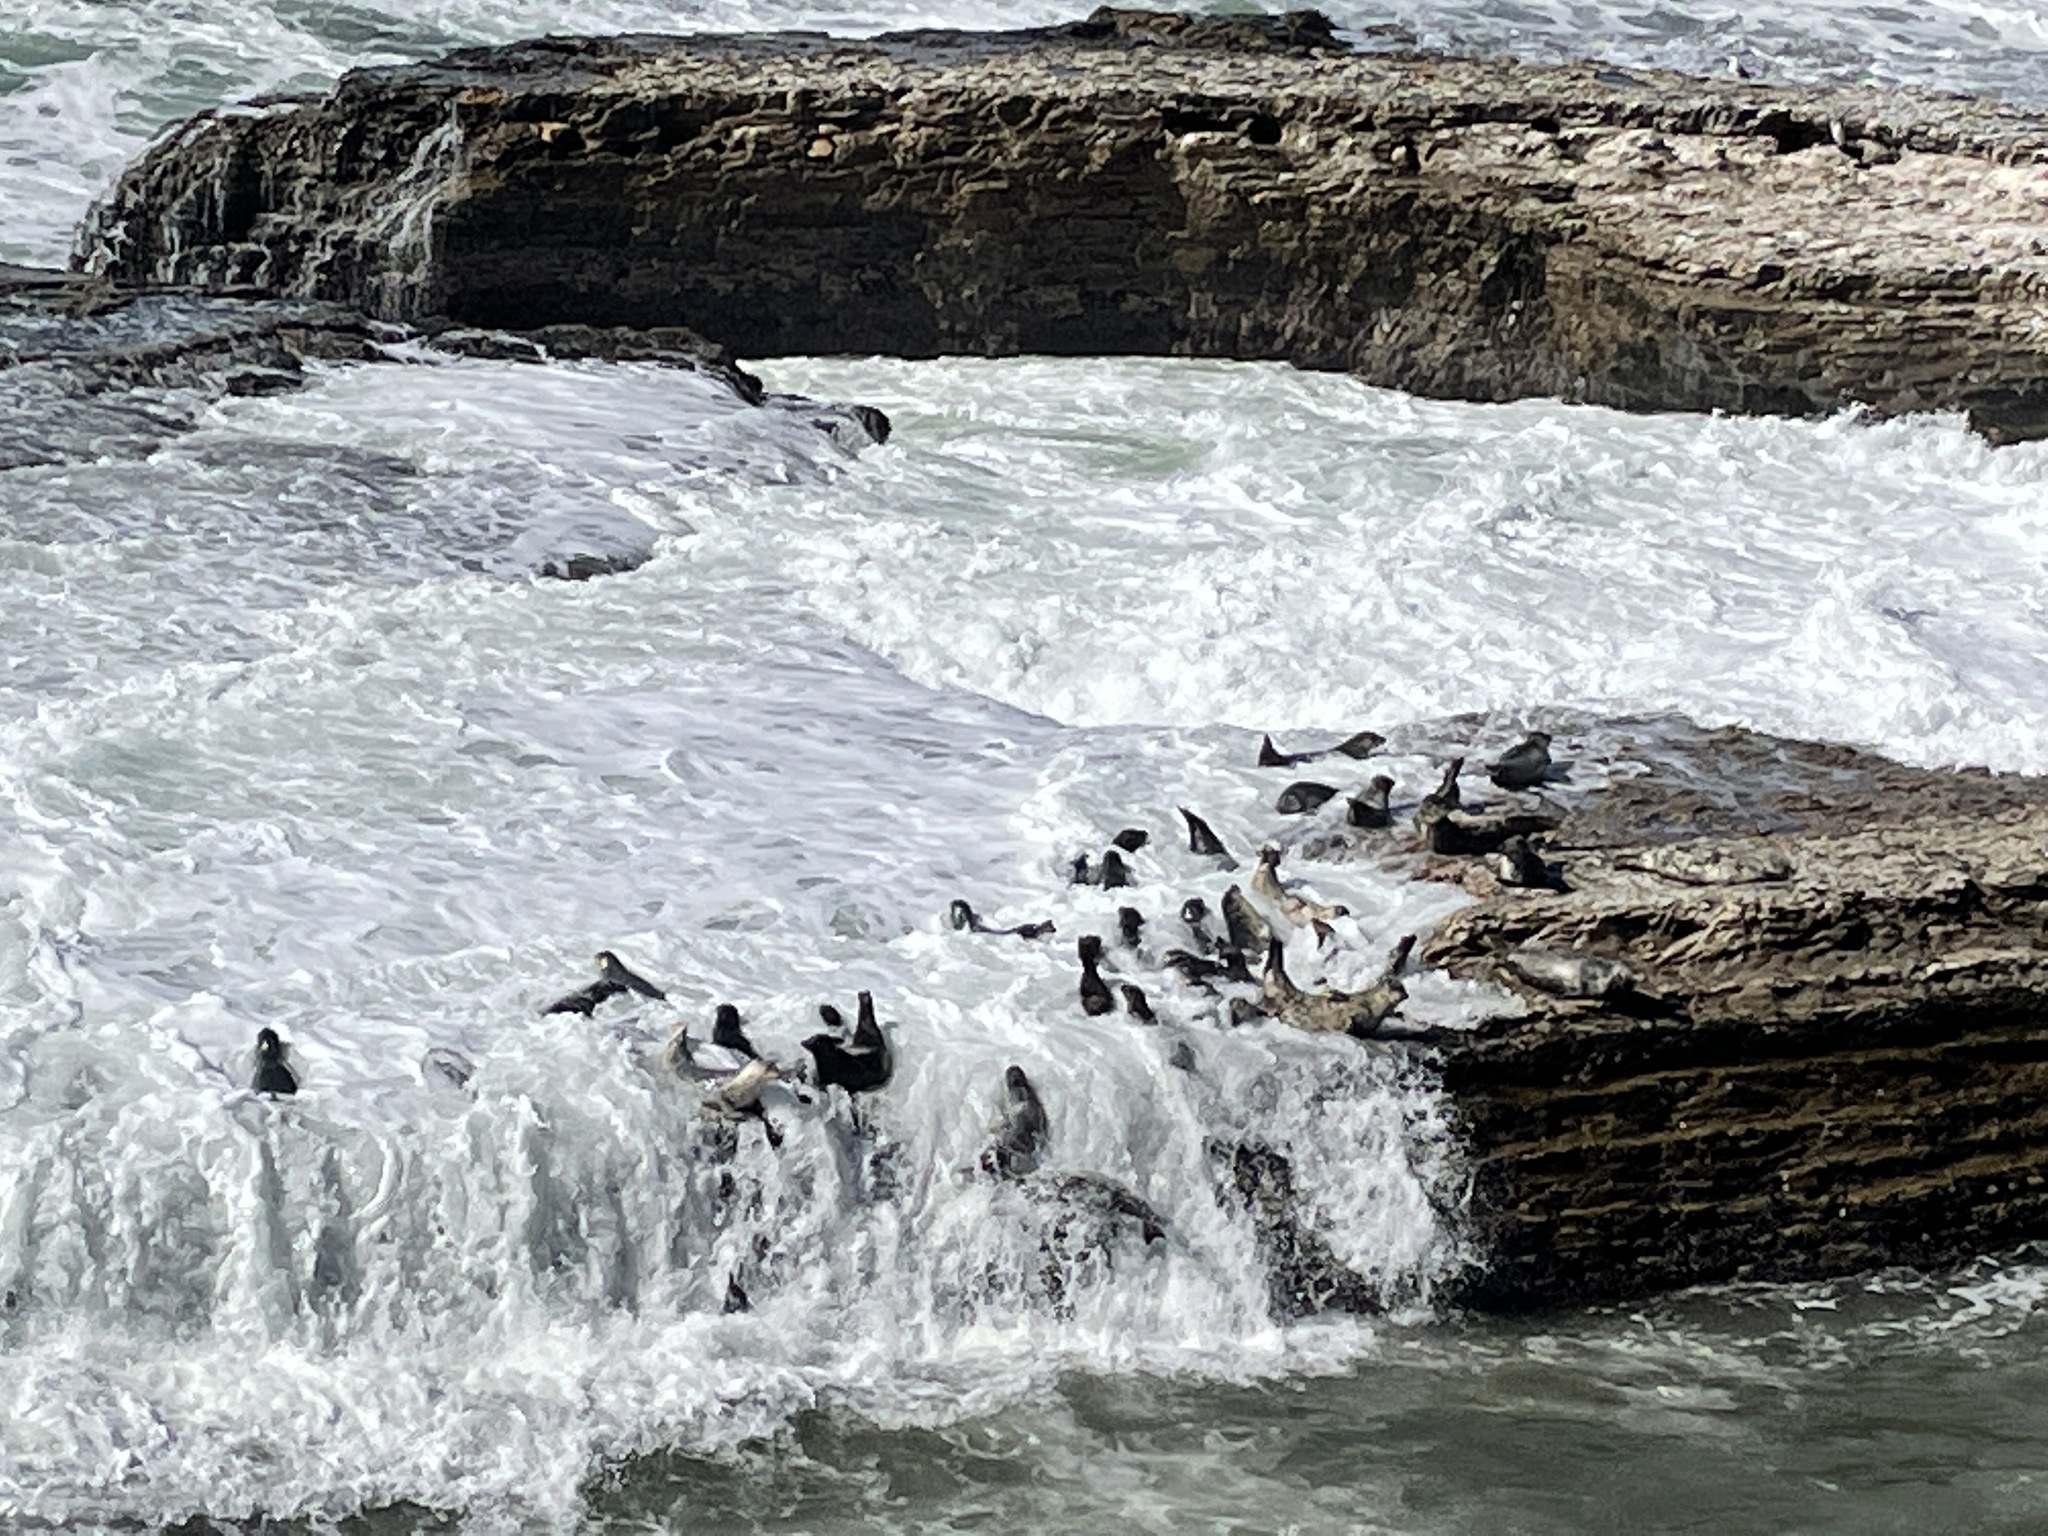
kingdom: Animalia
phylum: Chordata
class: Mammalia
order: Carnivora
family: Phocidae
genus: Phoca
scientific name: Phoca vitulina
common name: Harbor seal
